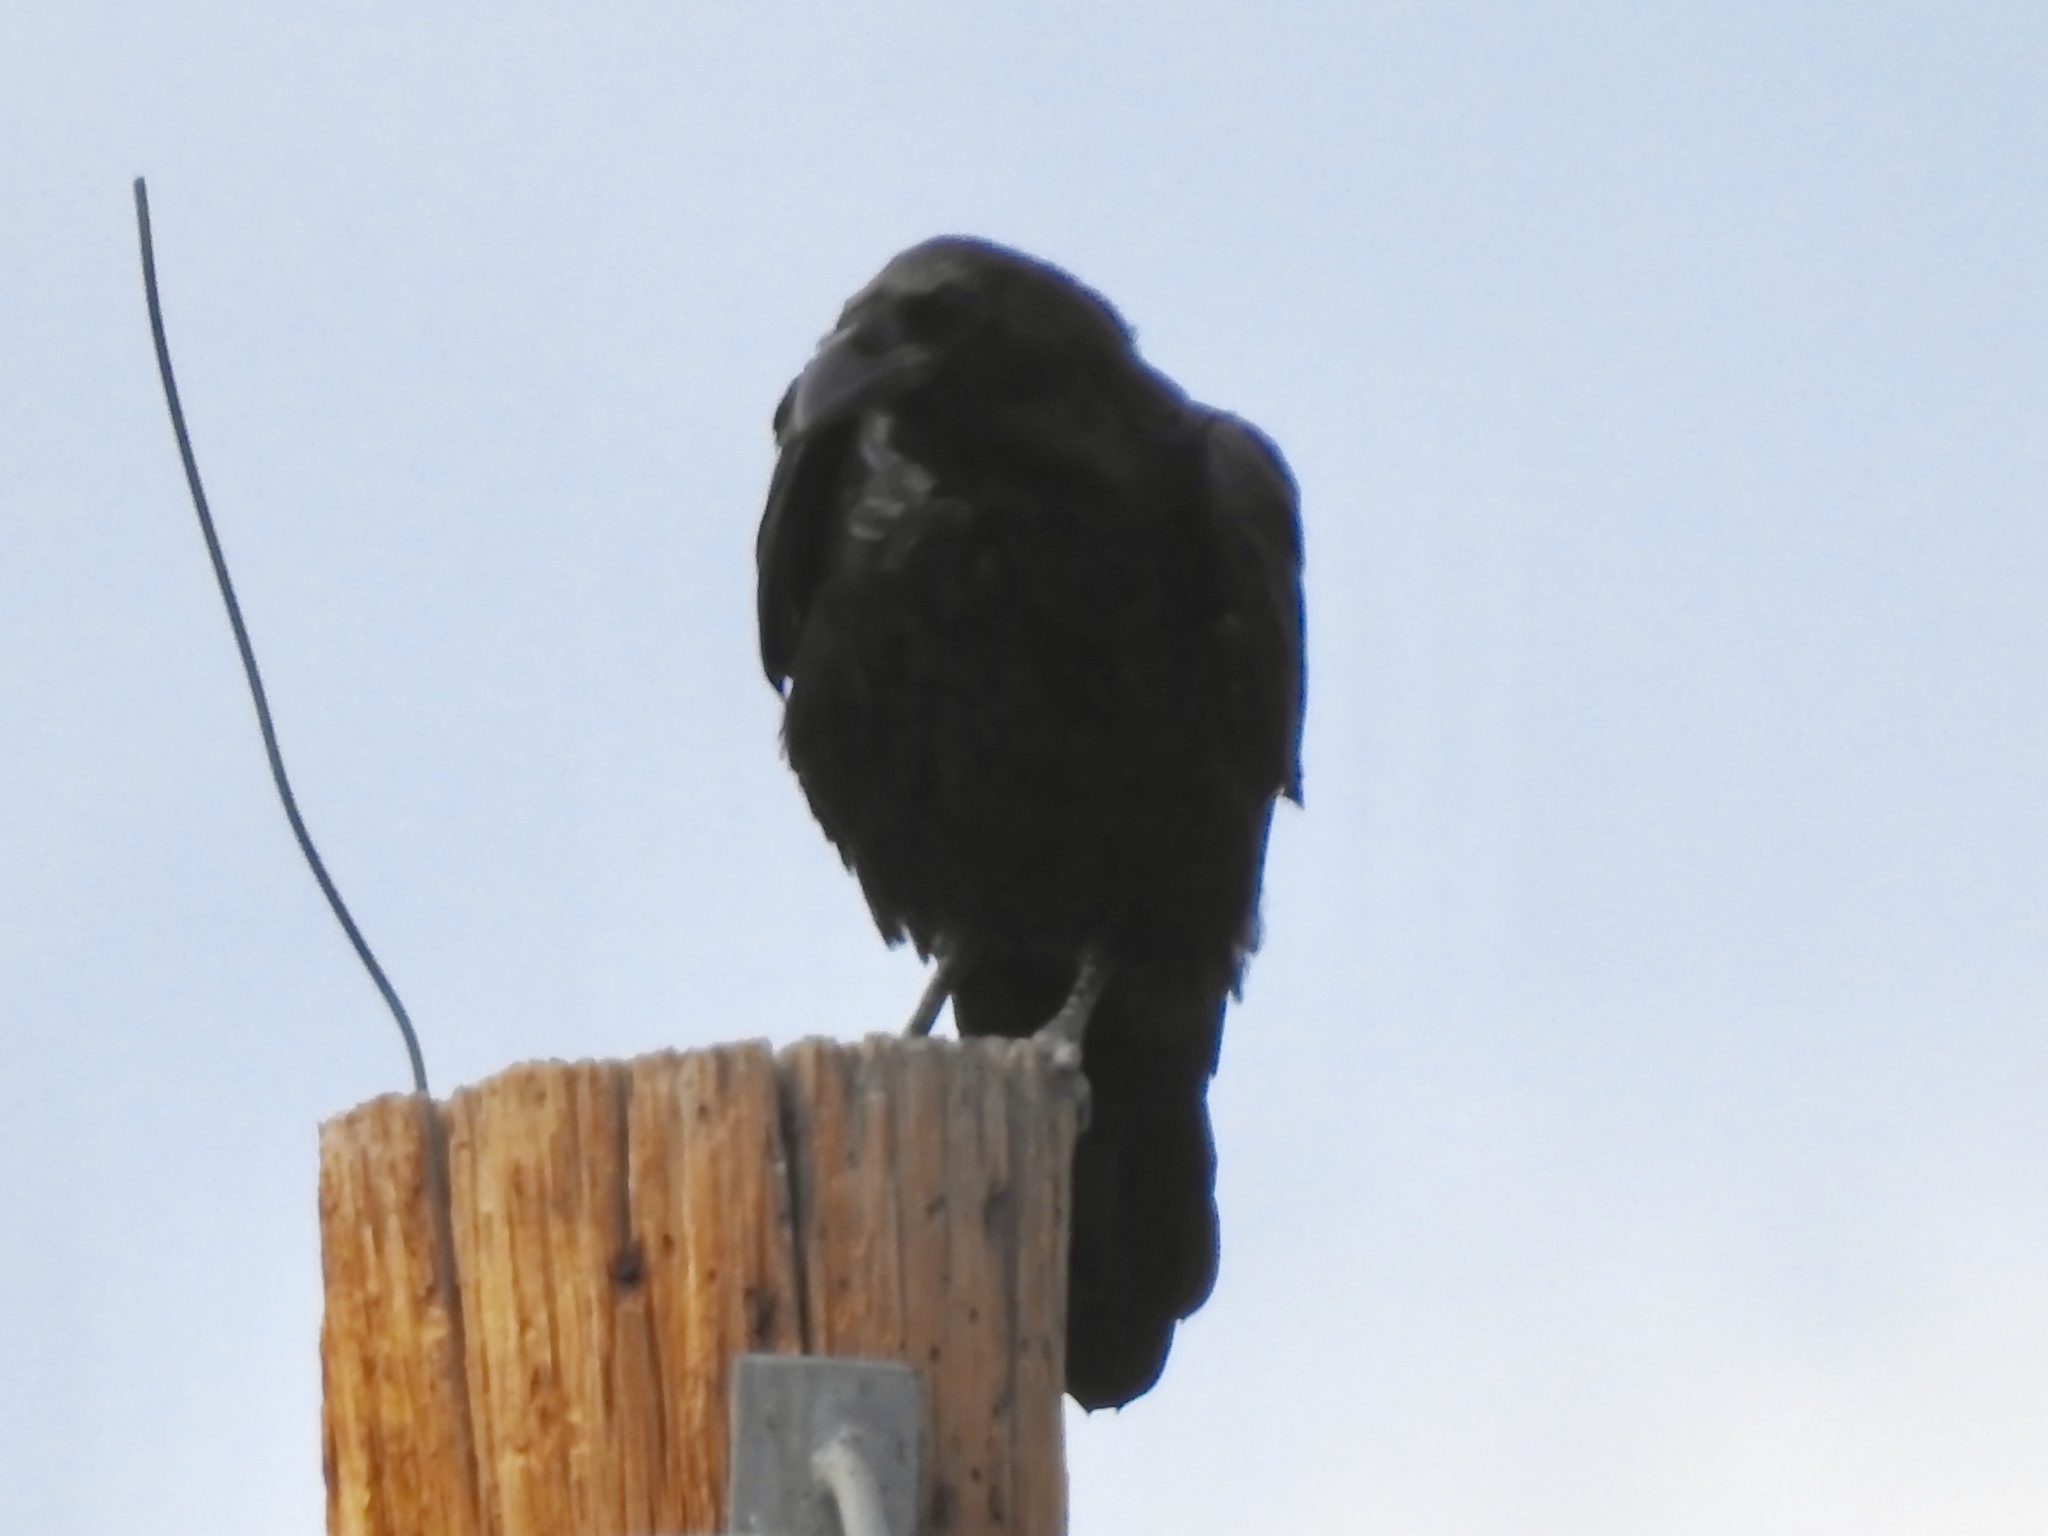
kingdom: Animalia
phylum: Chordata
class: Aves
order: Passeriformes
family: Corvidae
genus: Corvus
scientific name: Corvus corax
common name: Common raven
